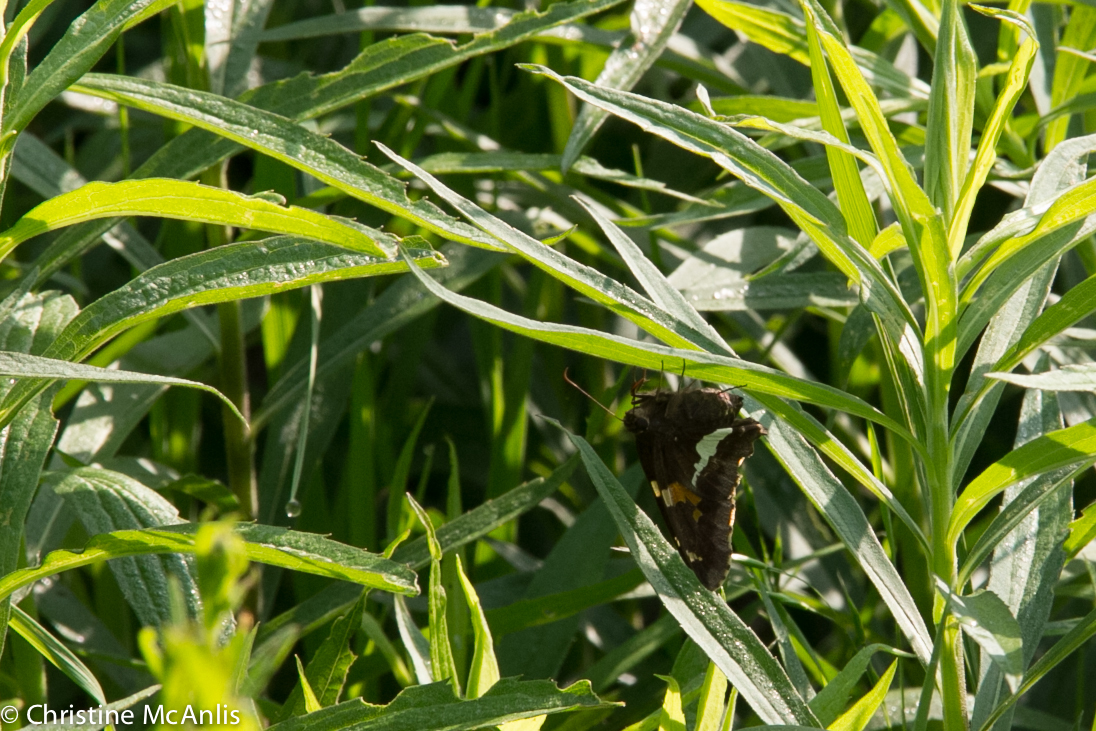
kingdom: Animalia
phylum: Arthropoda
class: Insecta
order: Lepidoptera
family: Hesperiidae
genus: Epargyreus
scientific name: Epargyreus clarus
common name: Silver-spotted skipper
